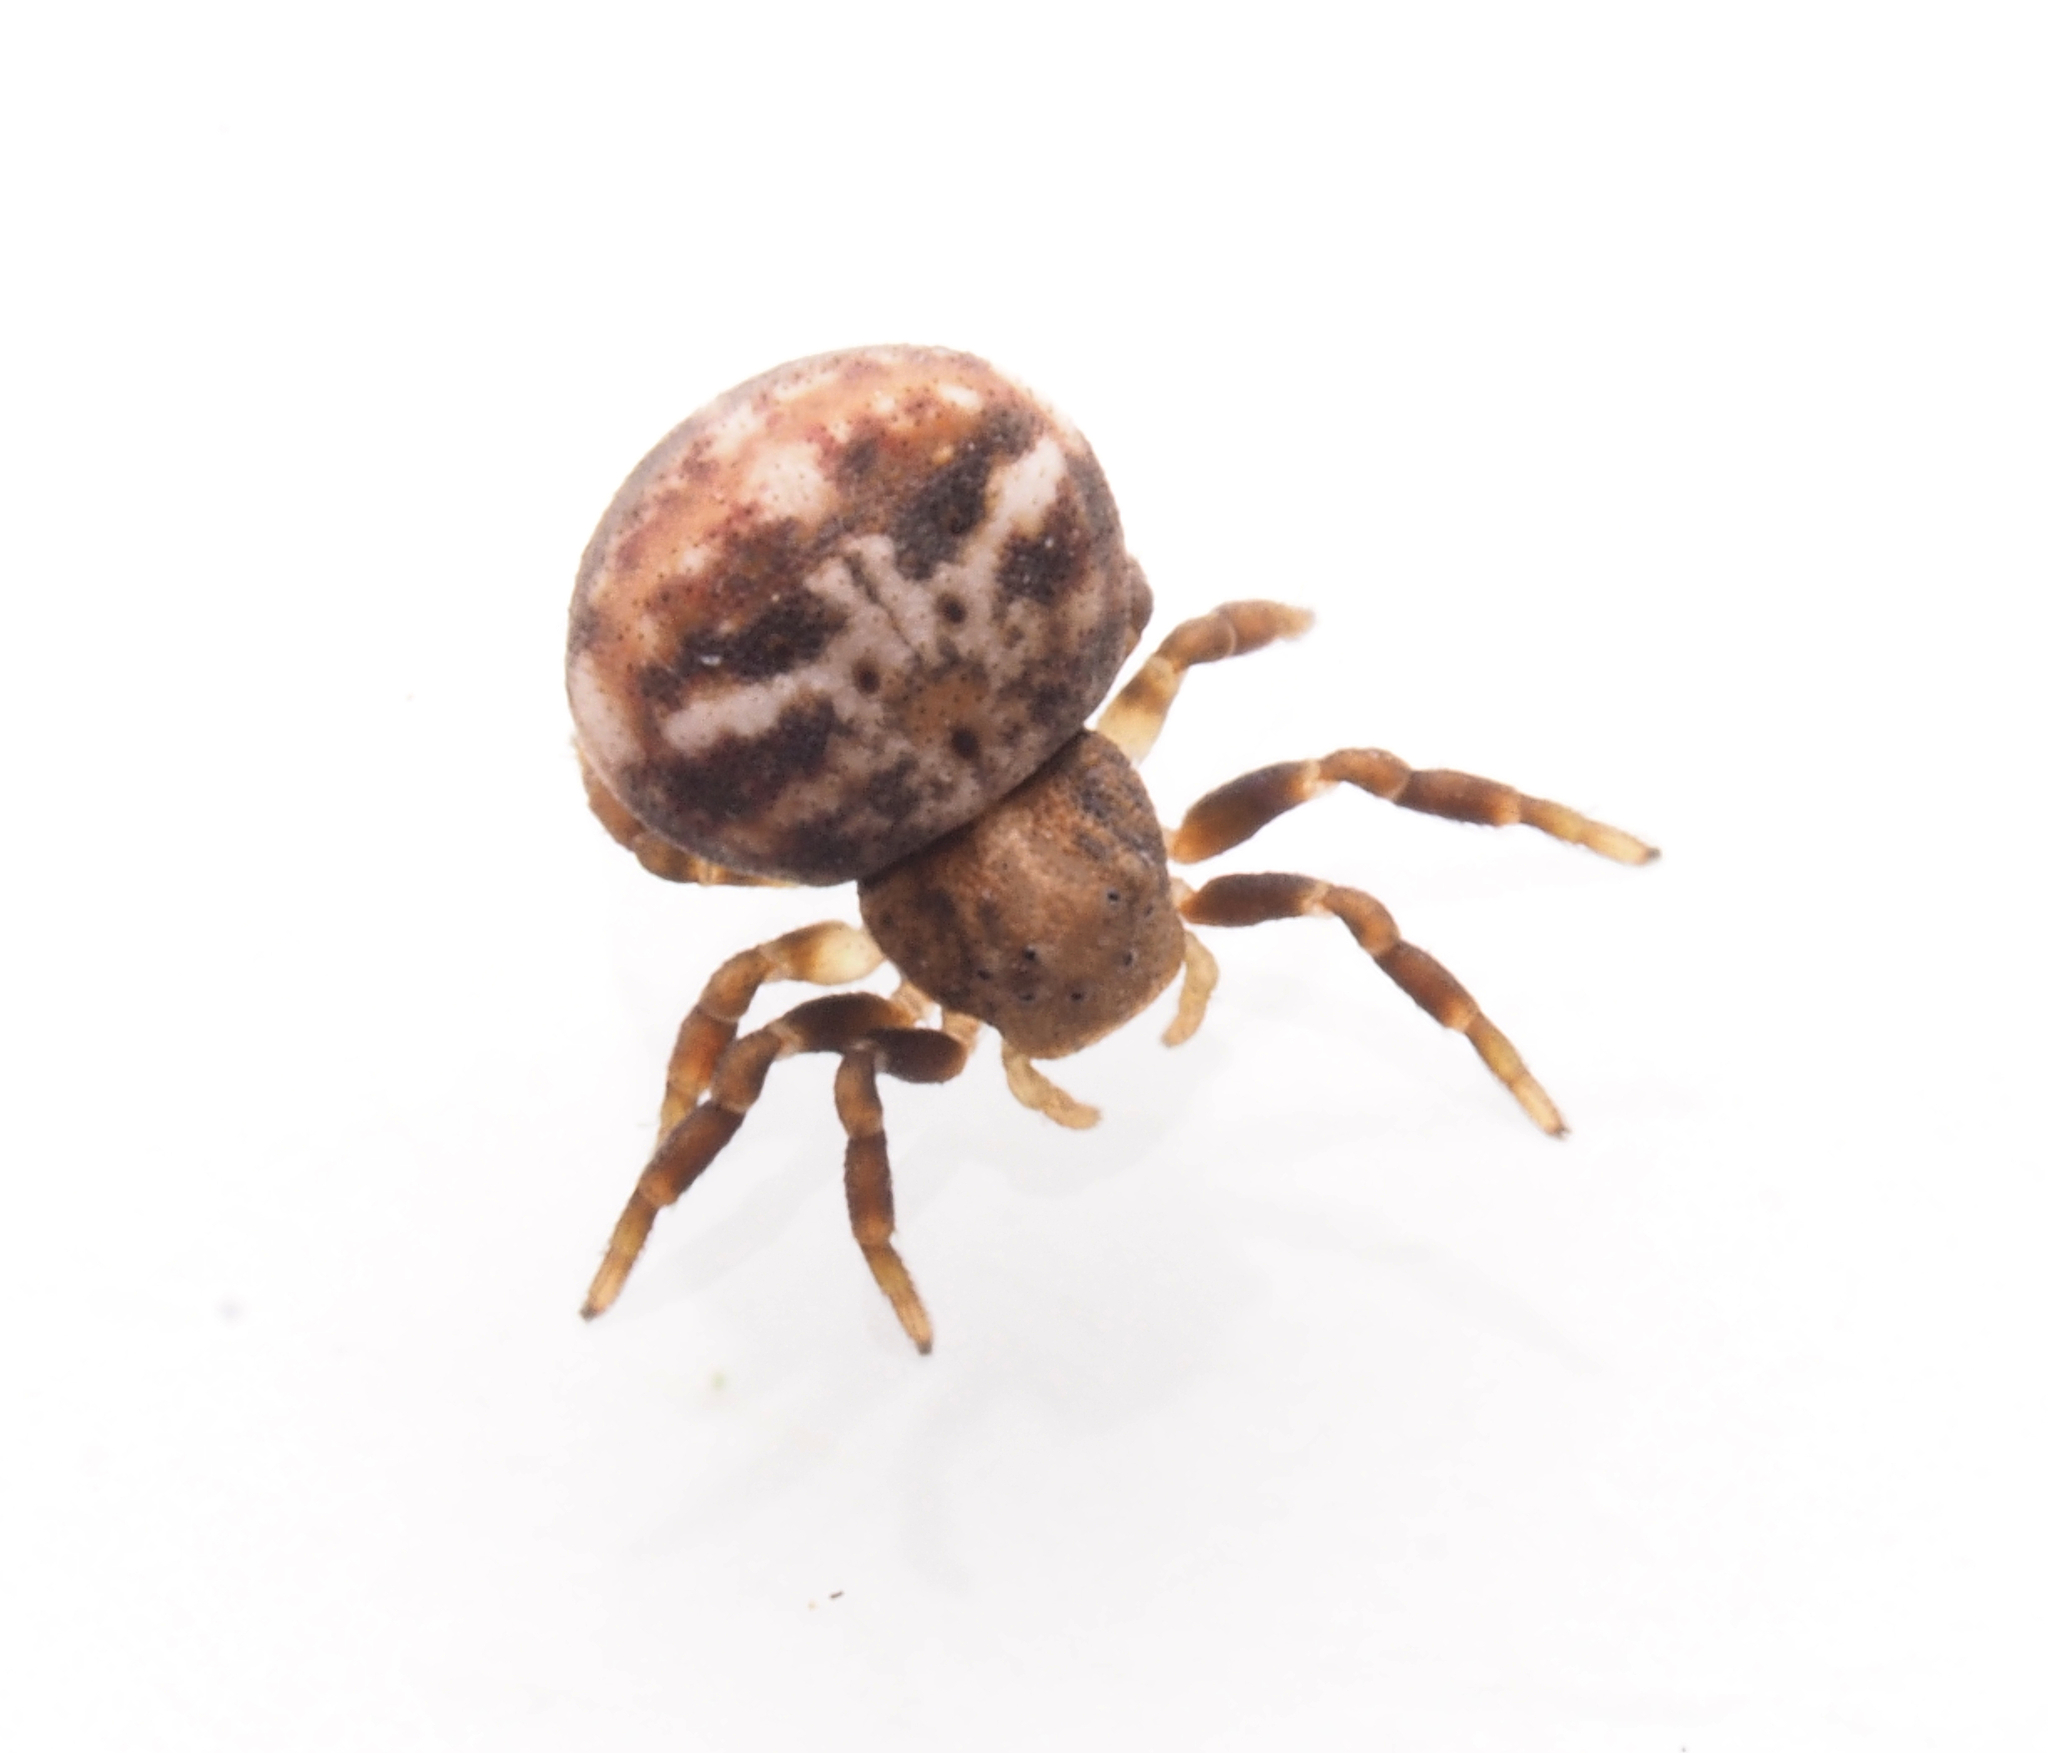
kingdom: Animalia
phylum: Arthropoda
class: Arachnida
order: Araneae
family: Thomisidae
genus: Bomis
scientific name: Bomis larvata
